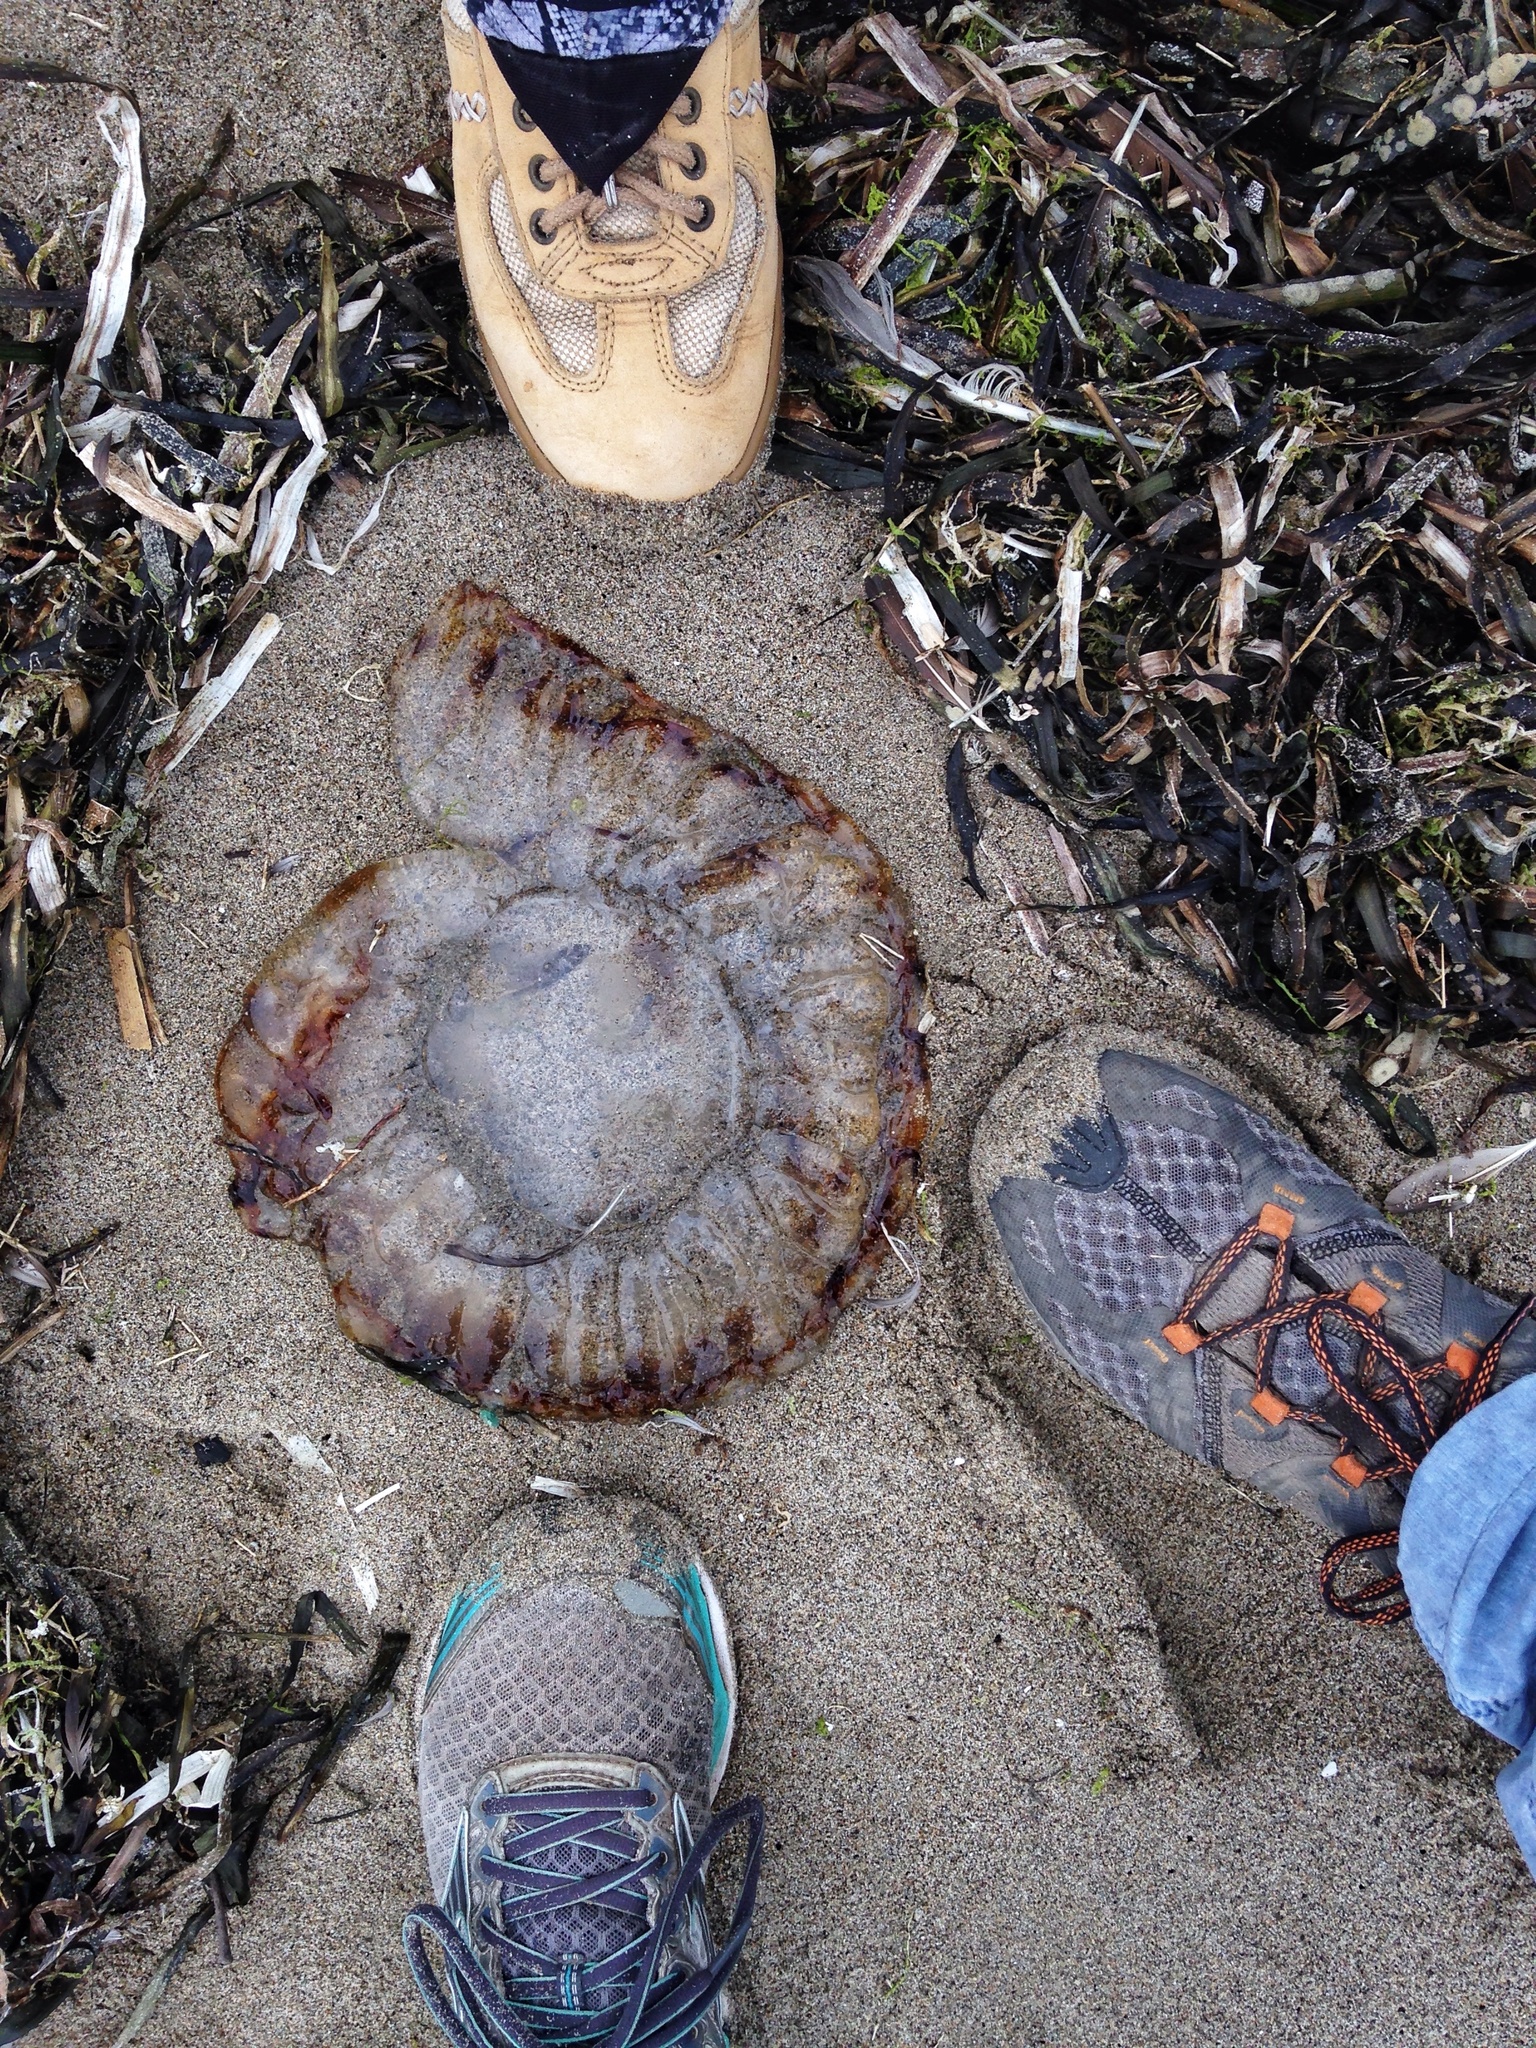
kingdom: Animalia
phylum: Cnidaria
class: Scyphozoa
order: Semaeostomeae
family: Pelagiidae
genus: Chrysaora
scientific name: Chrysaora fuscescens
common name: Sea nettle
